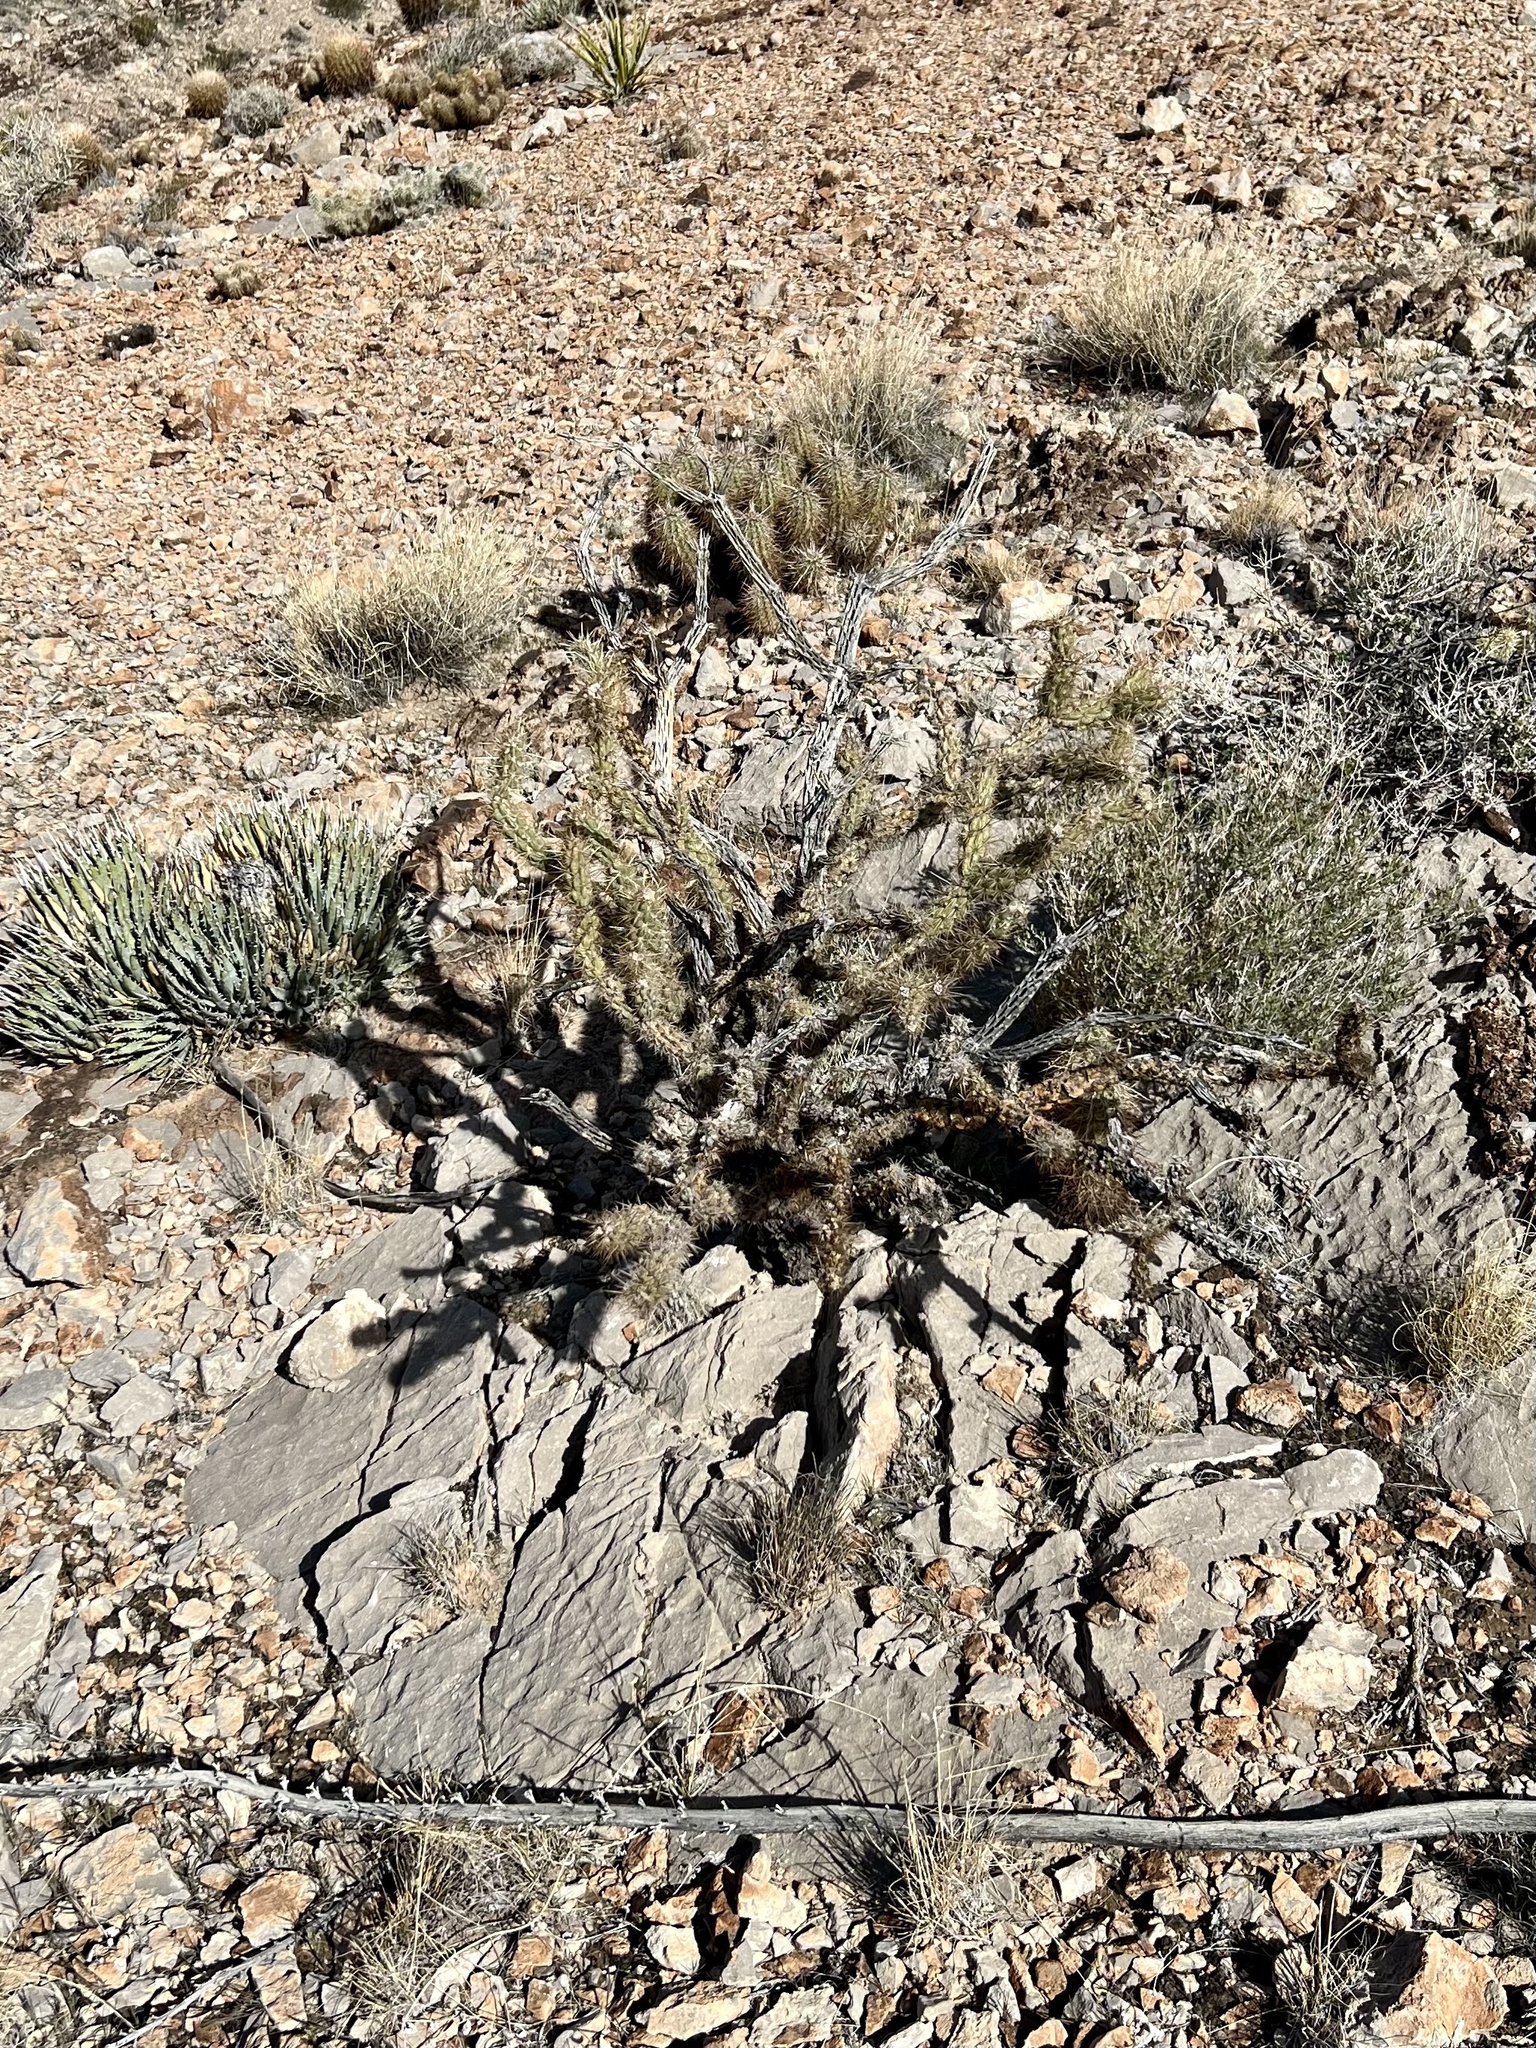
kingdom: Plantae
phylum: Tracheophyta
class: Magnoliopsida
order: Caryophyllales
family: Cactaceae
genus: Cylindropuntia
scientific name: Cylindropuntia acanthocarpa
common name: Buckhorn cholla
